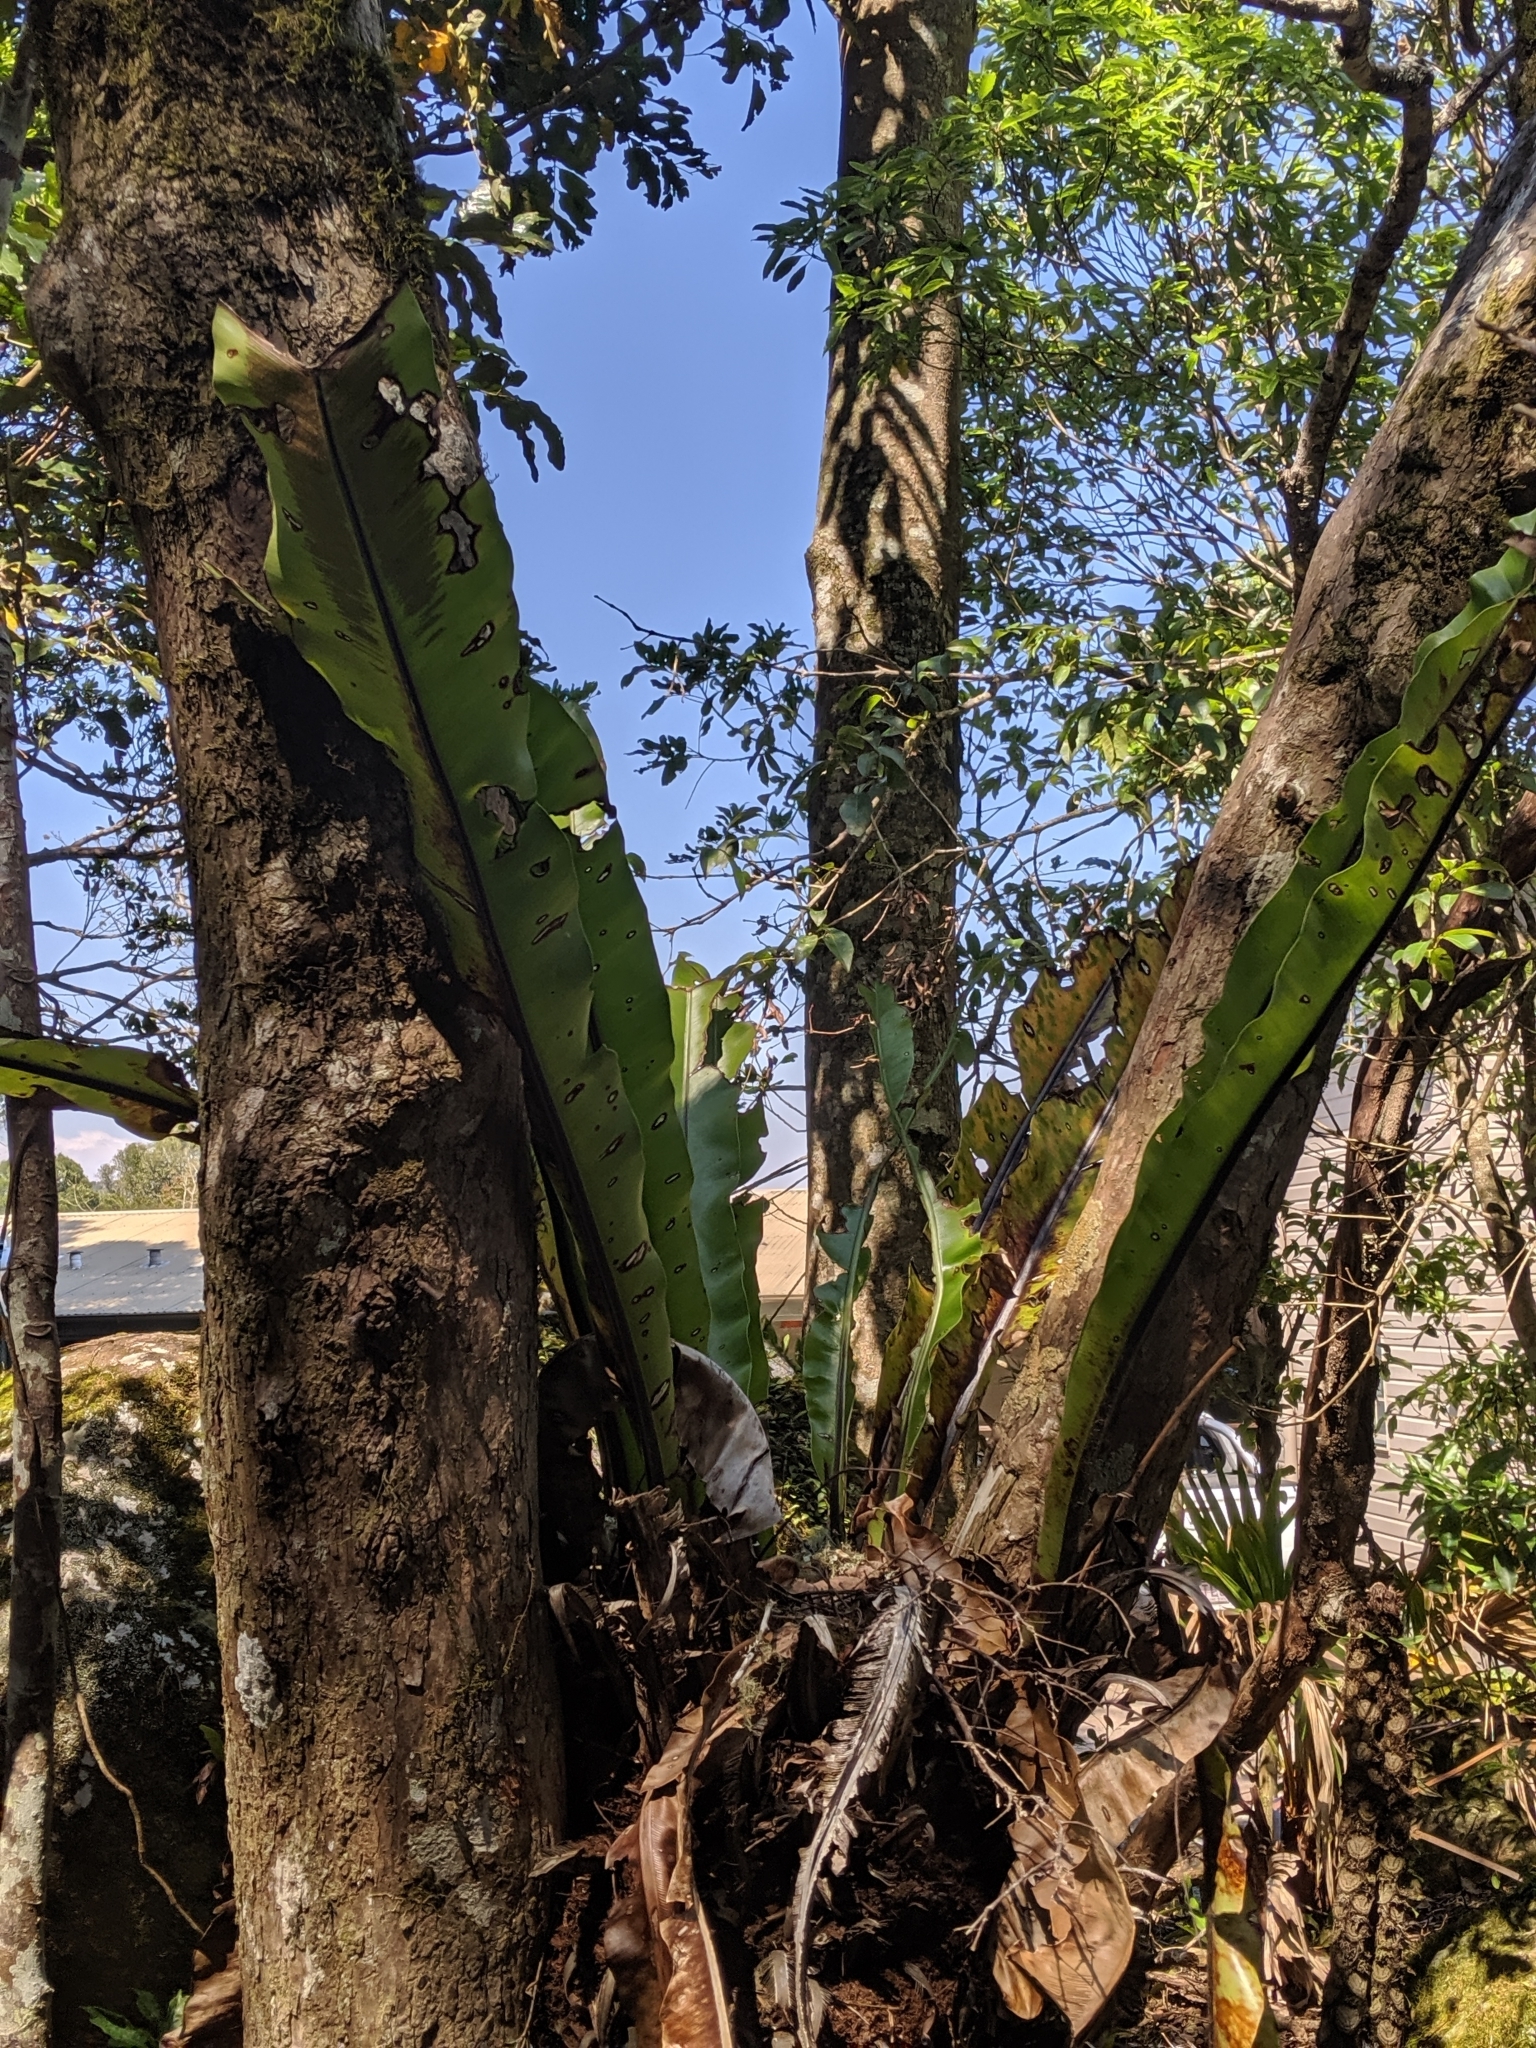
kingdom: Plantae
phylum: Tracheophyta
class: Polypodiopsida
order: Polypodiales
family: Aspleniaceae
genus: Asplenium
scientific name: Asplenium australasicum
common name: Bird's-nest fern
